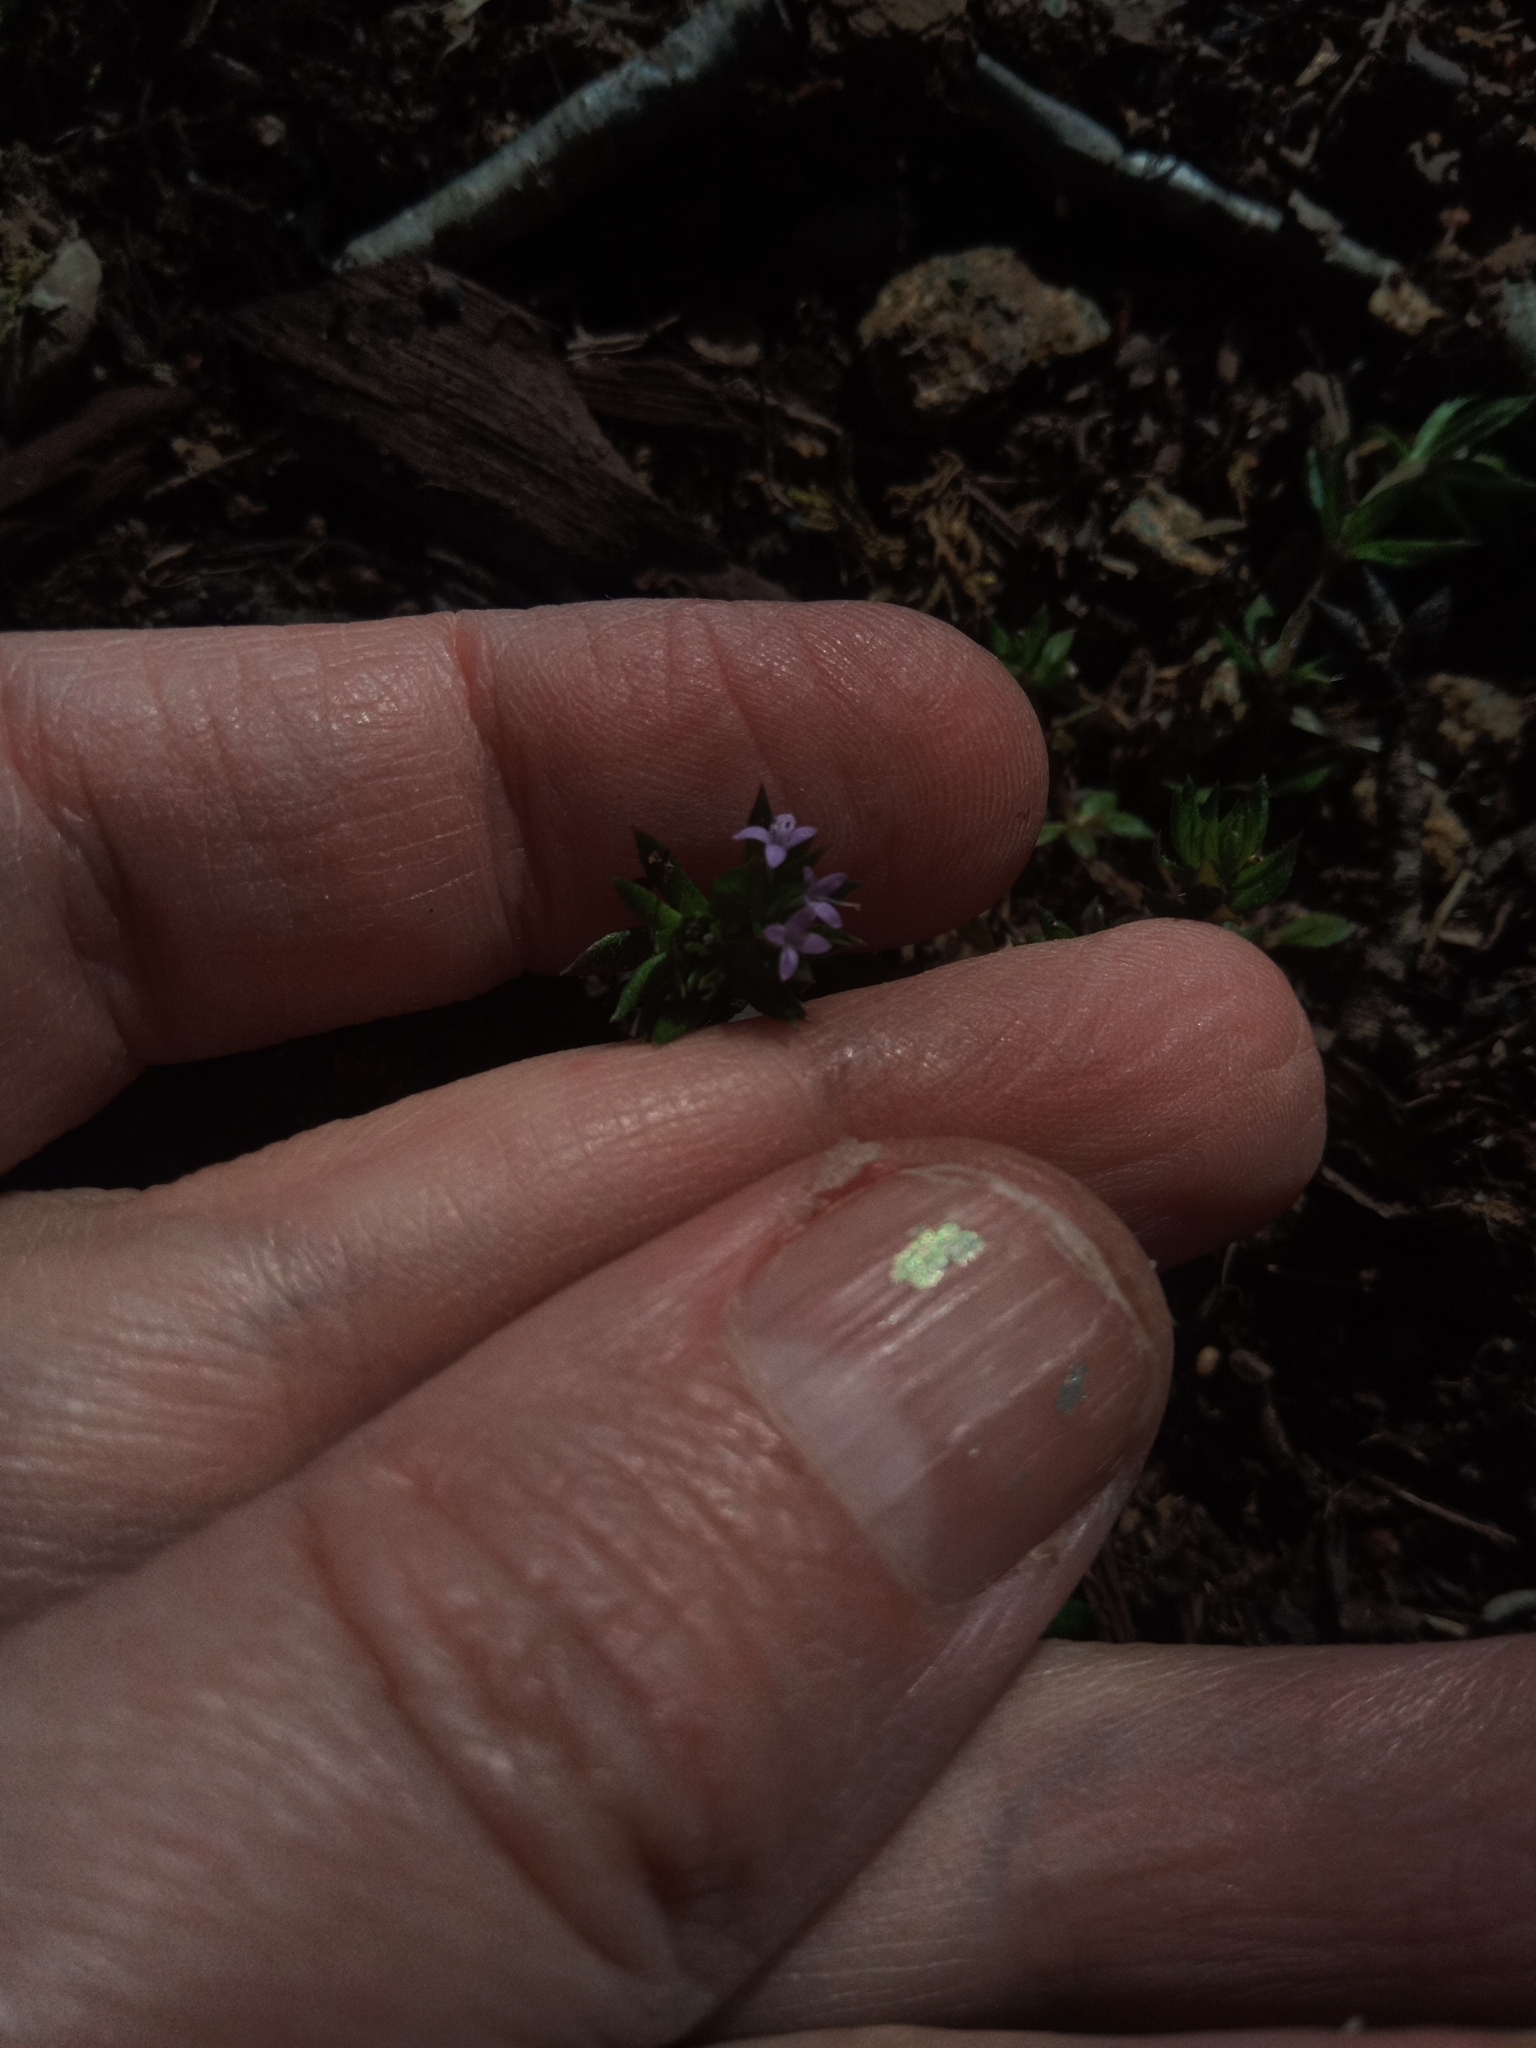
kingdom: Plantae
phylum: Tracheophyta
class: Magnoliopsida
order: Gentianales
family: Rubiaceae
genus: Sherardia
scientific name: Sherardia arvensis
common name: Field madder
